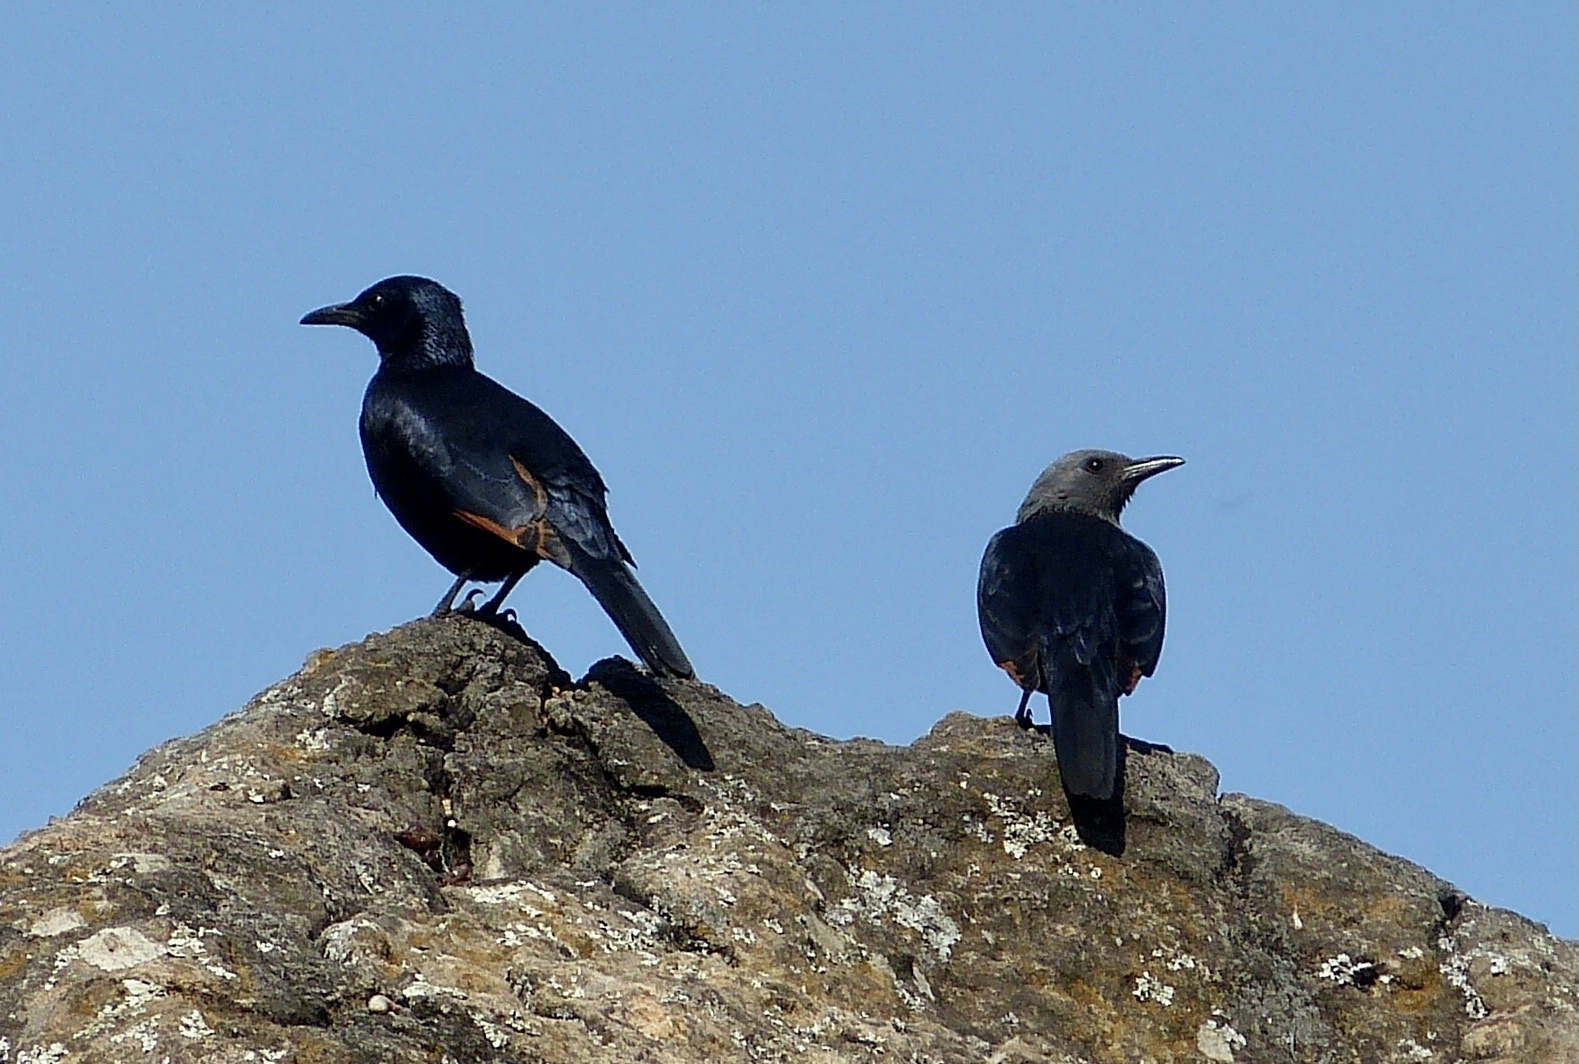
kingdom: Animalia
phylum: Chordata
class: Aves
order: Passeriformes
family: Sturnidae
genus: Onychognathus
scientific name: Onychognathus morio
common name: Red-winged starling
